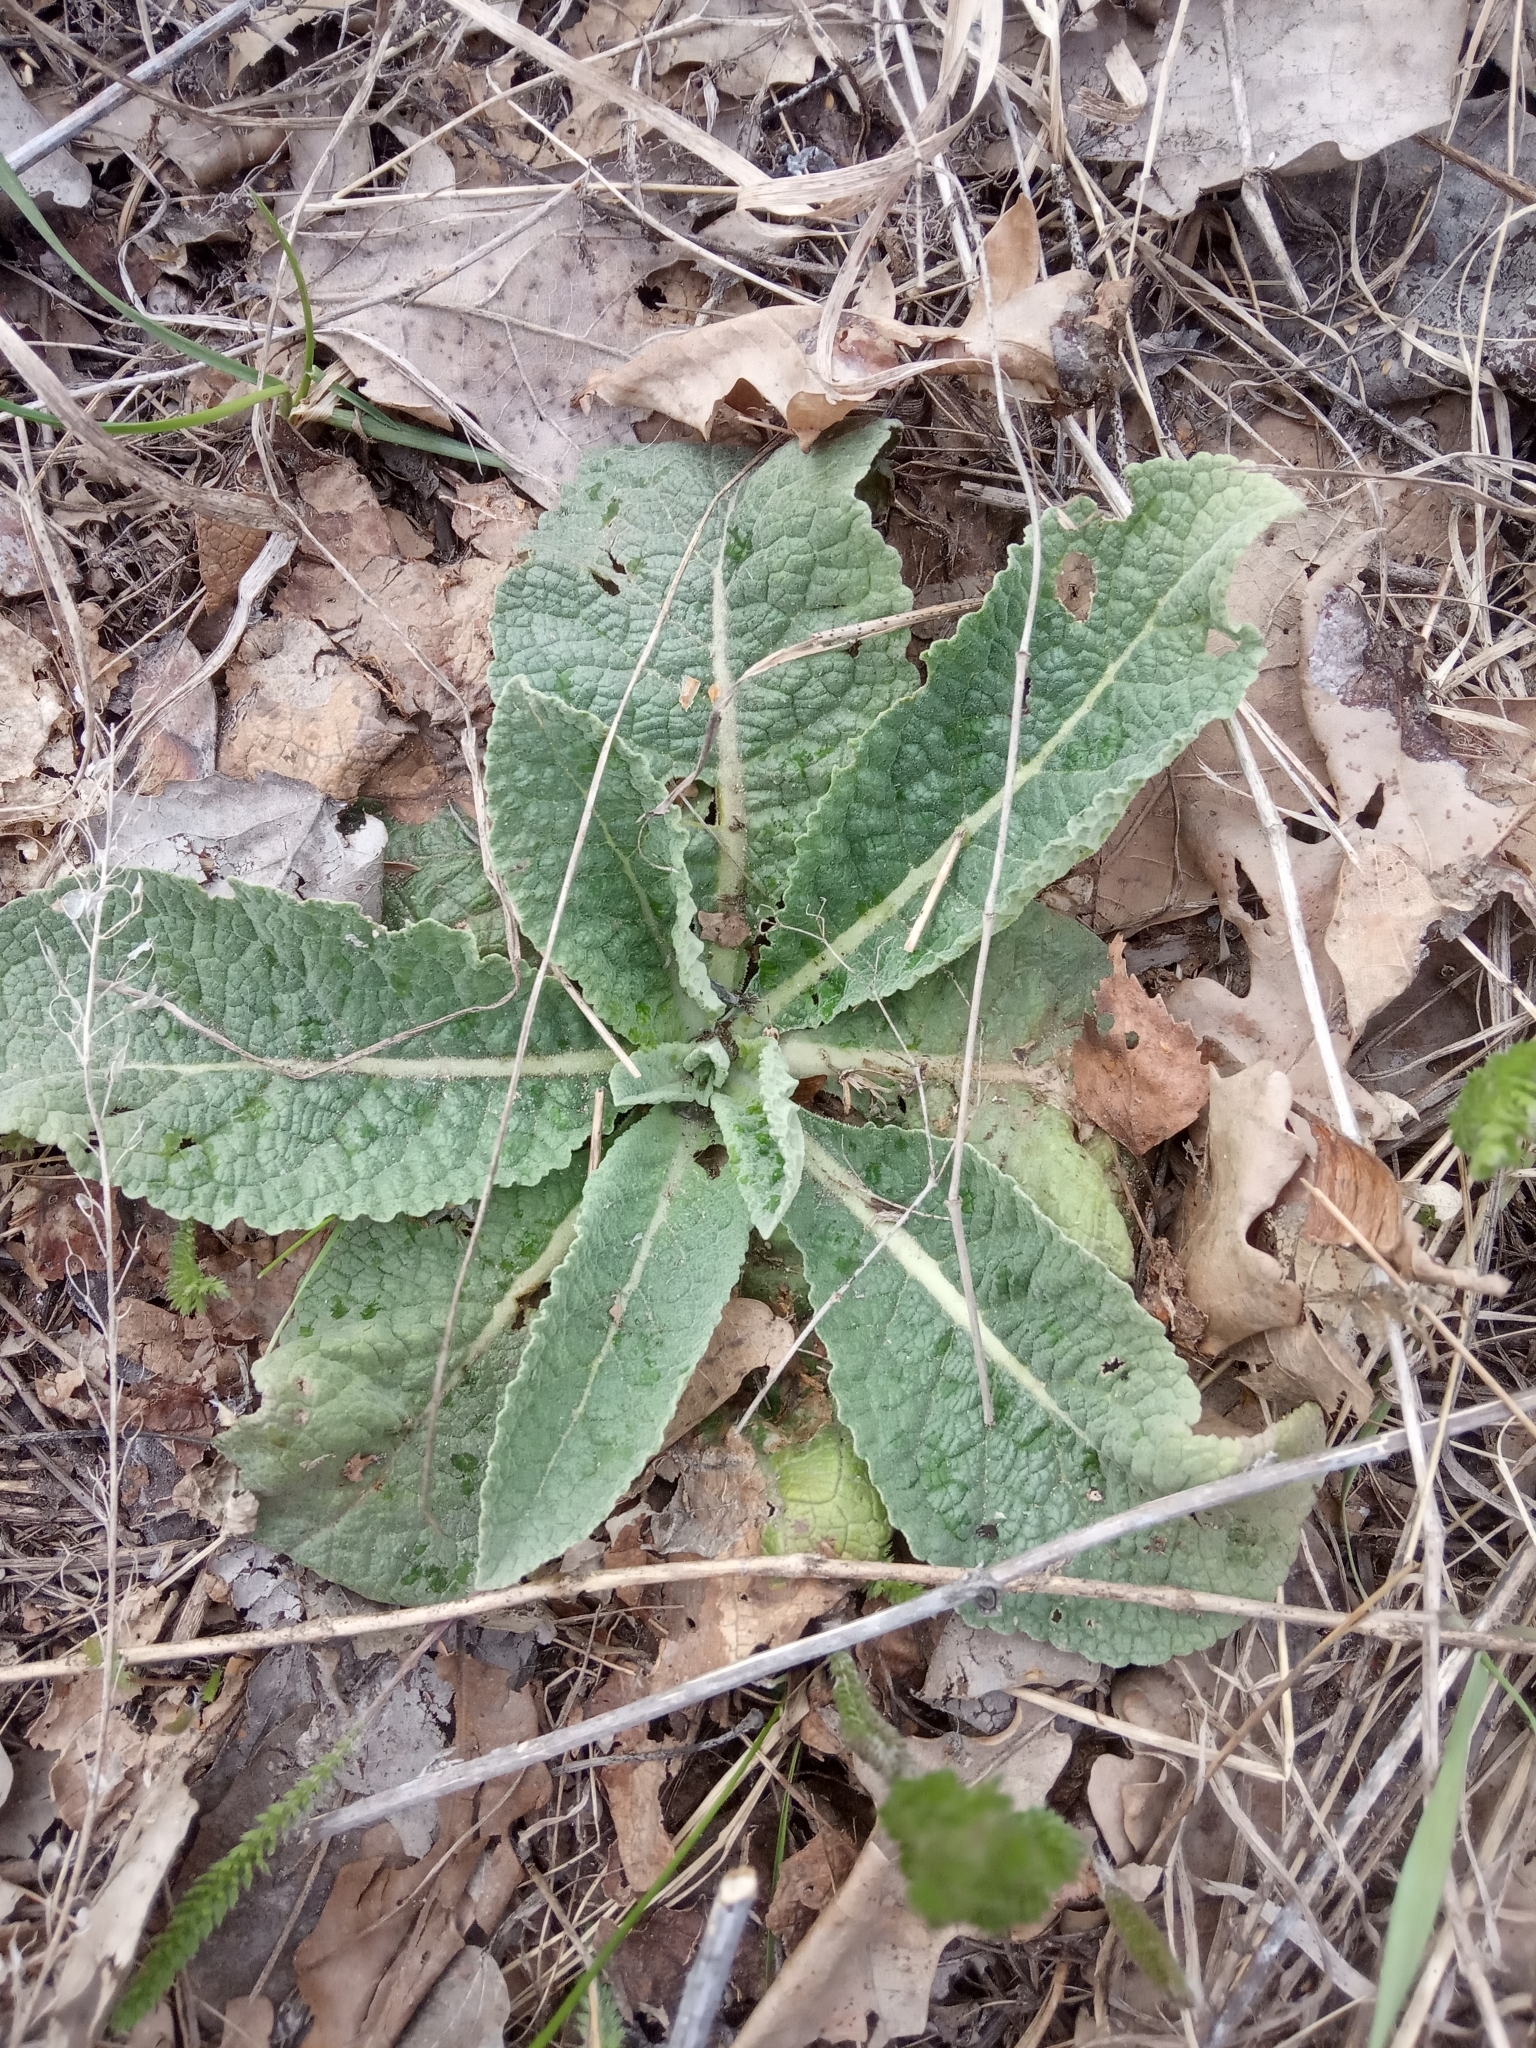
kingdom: Plantae
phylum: Tracheophyta
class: Magnoliopsida
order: Lamiales
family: Scrophulariaceae
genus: Verbascum
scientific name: Verbascum lychnitis
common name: White mullein
